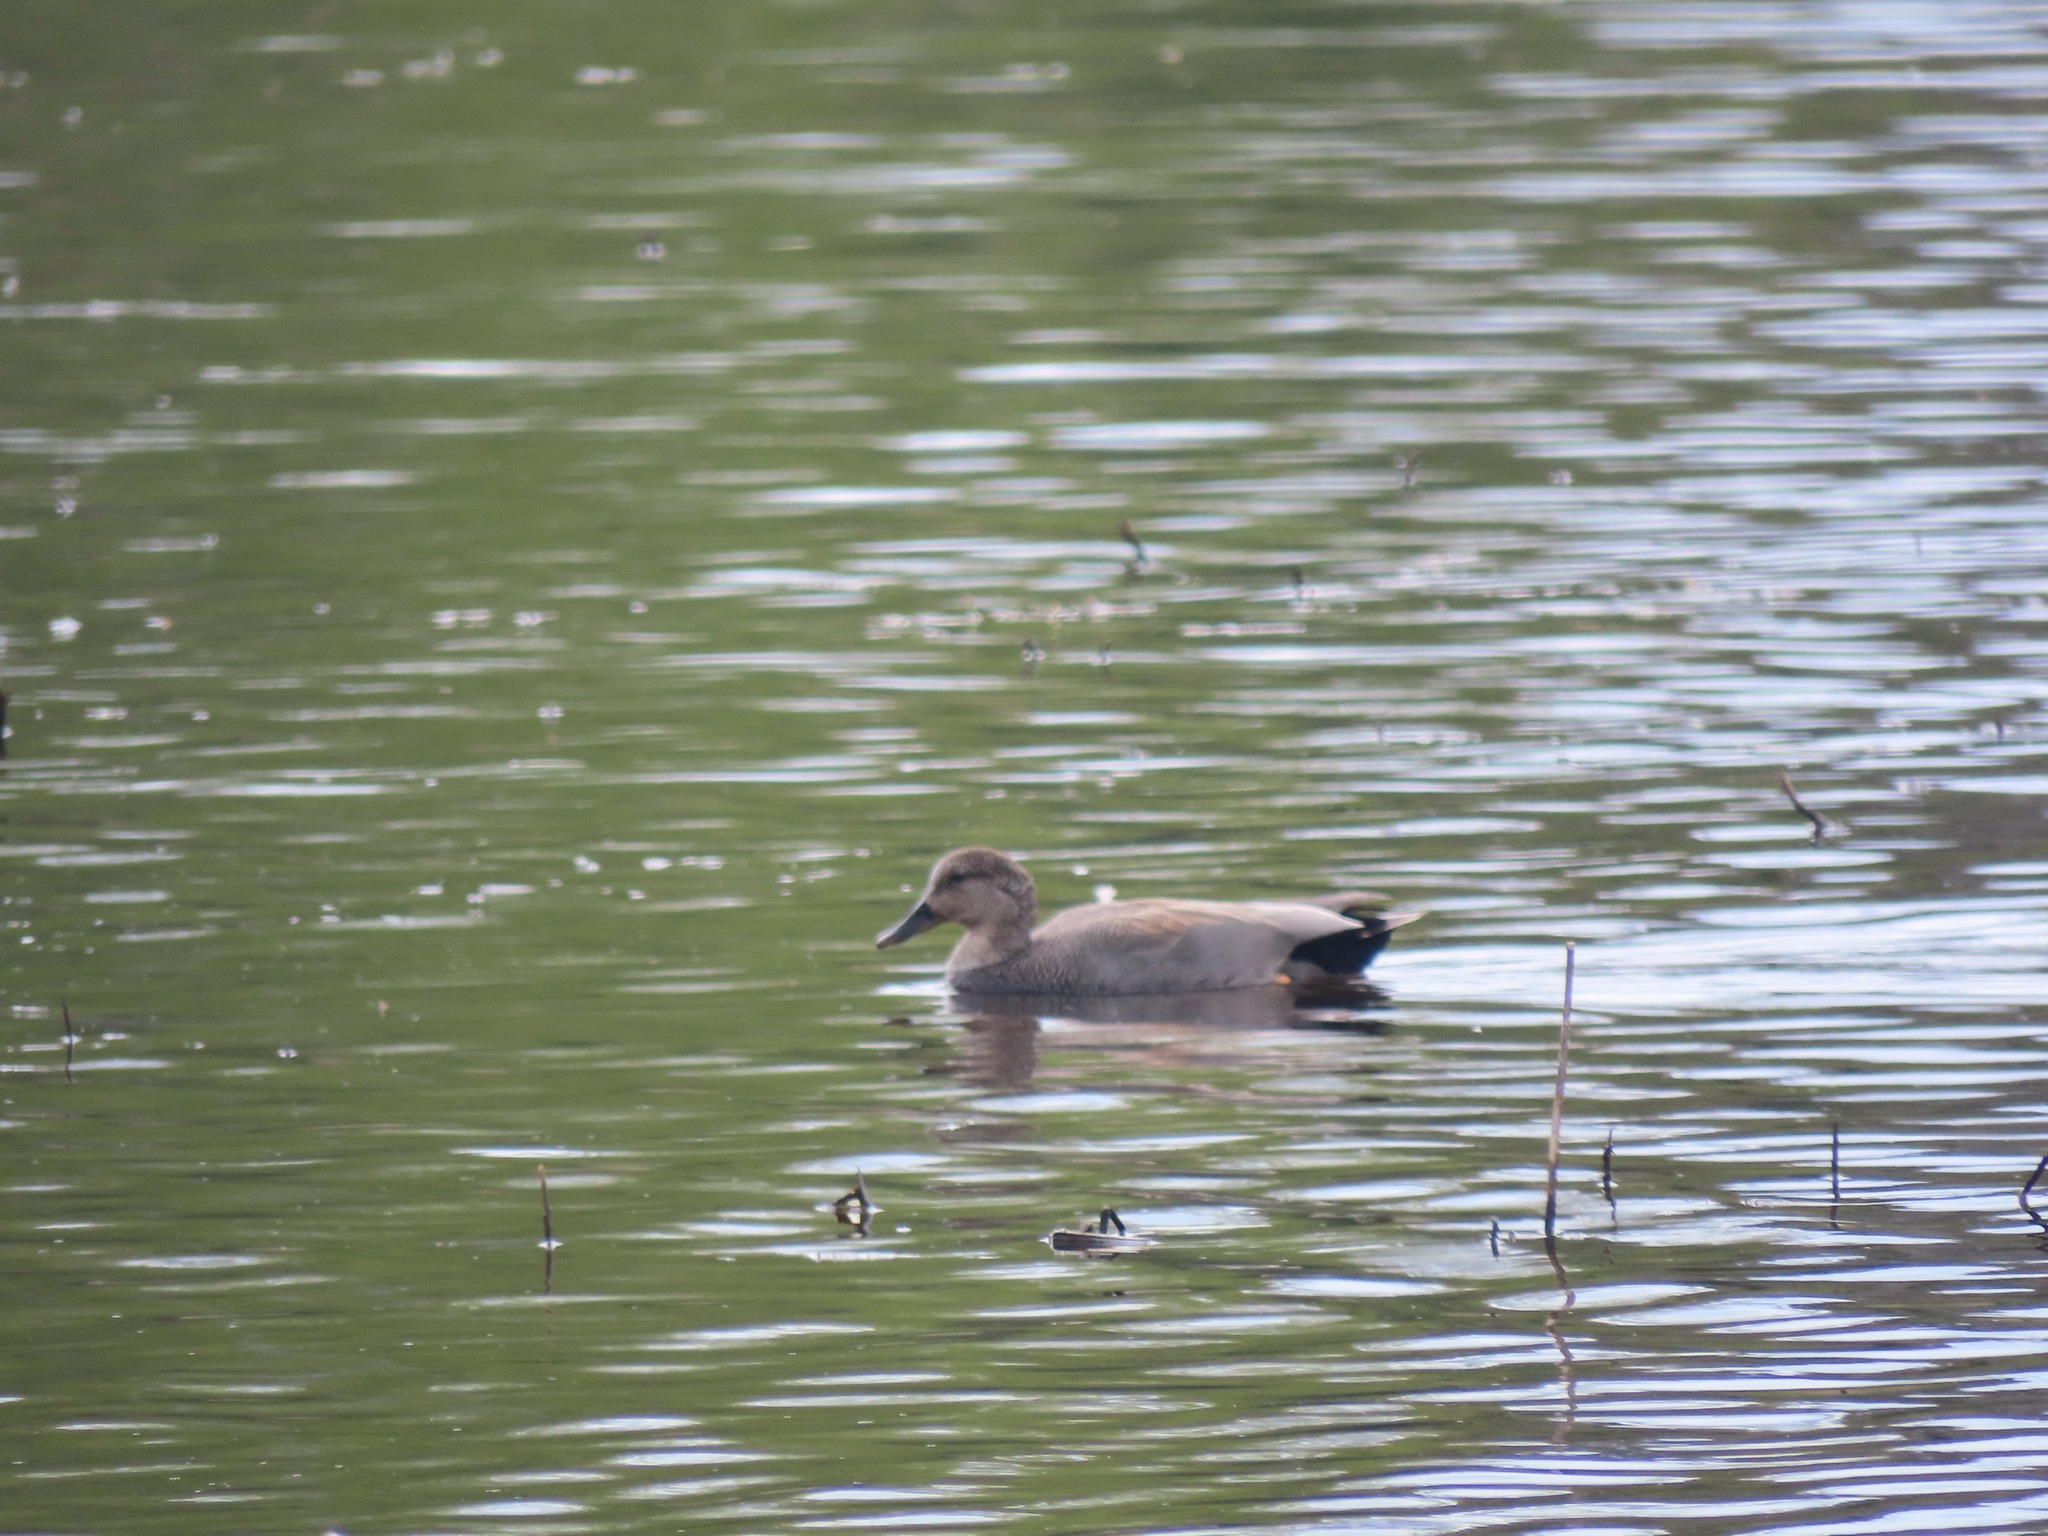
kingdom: Animalia
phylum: Chordata
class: Aves
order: Anseriformes
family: Anatidae
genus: Mareca
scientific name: Mareca strepera
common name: Gadwall
